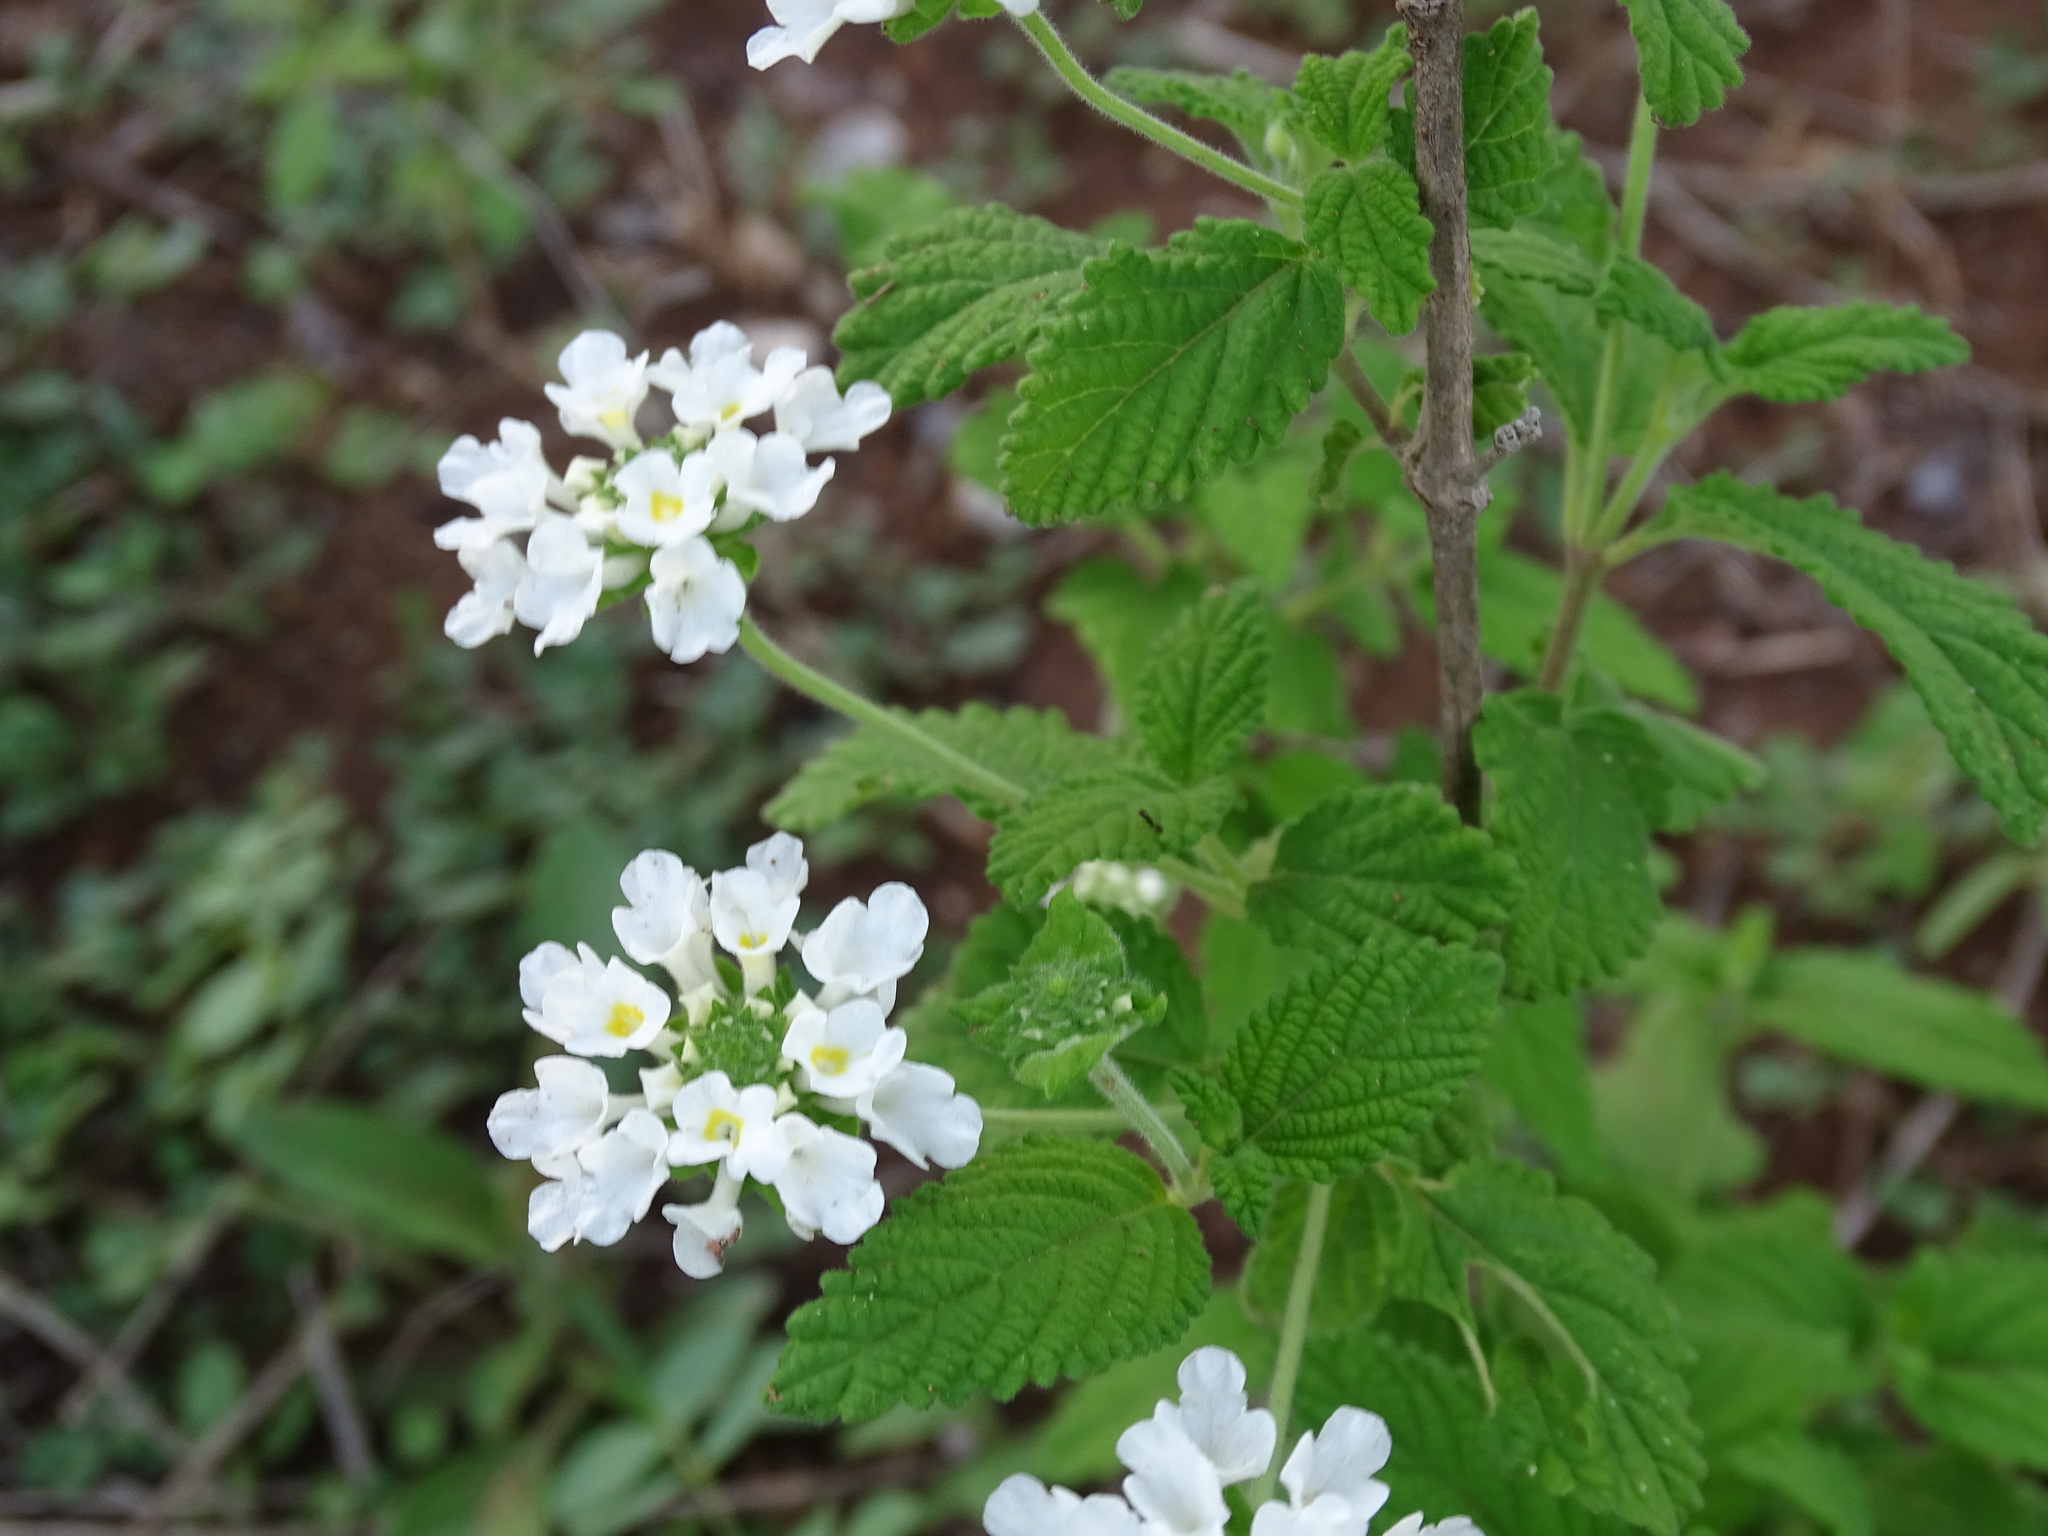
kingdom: Plantae
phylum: Tracheophyta
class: Magnoliopsida
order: Lamiales
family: Verbenaceae
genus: Lantana
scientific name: Lantana velutina
